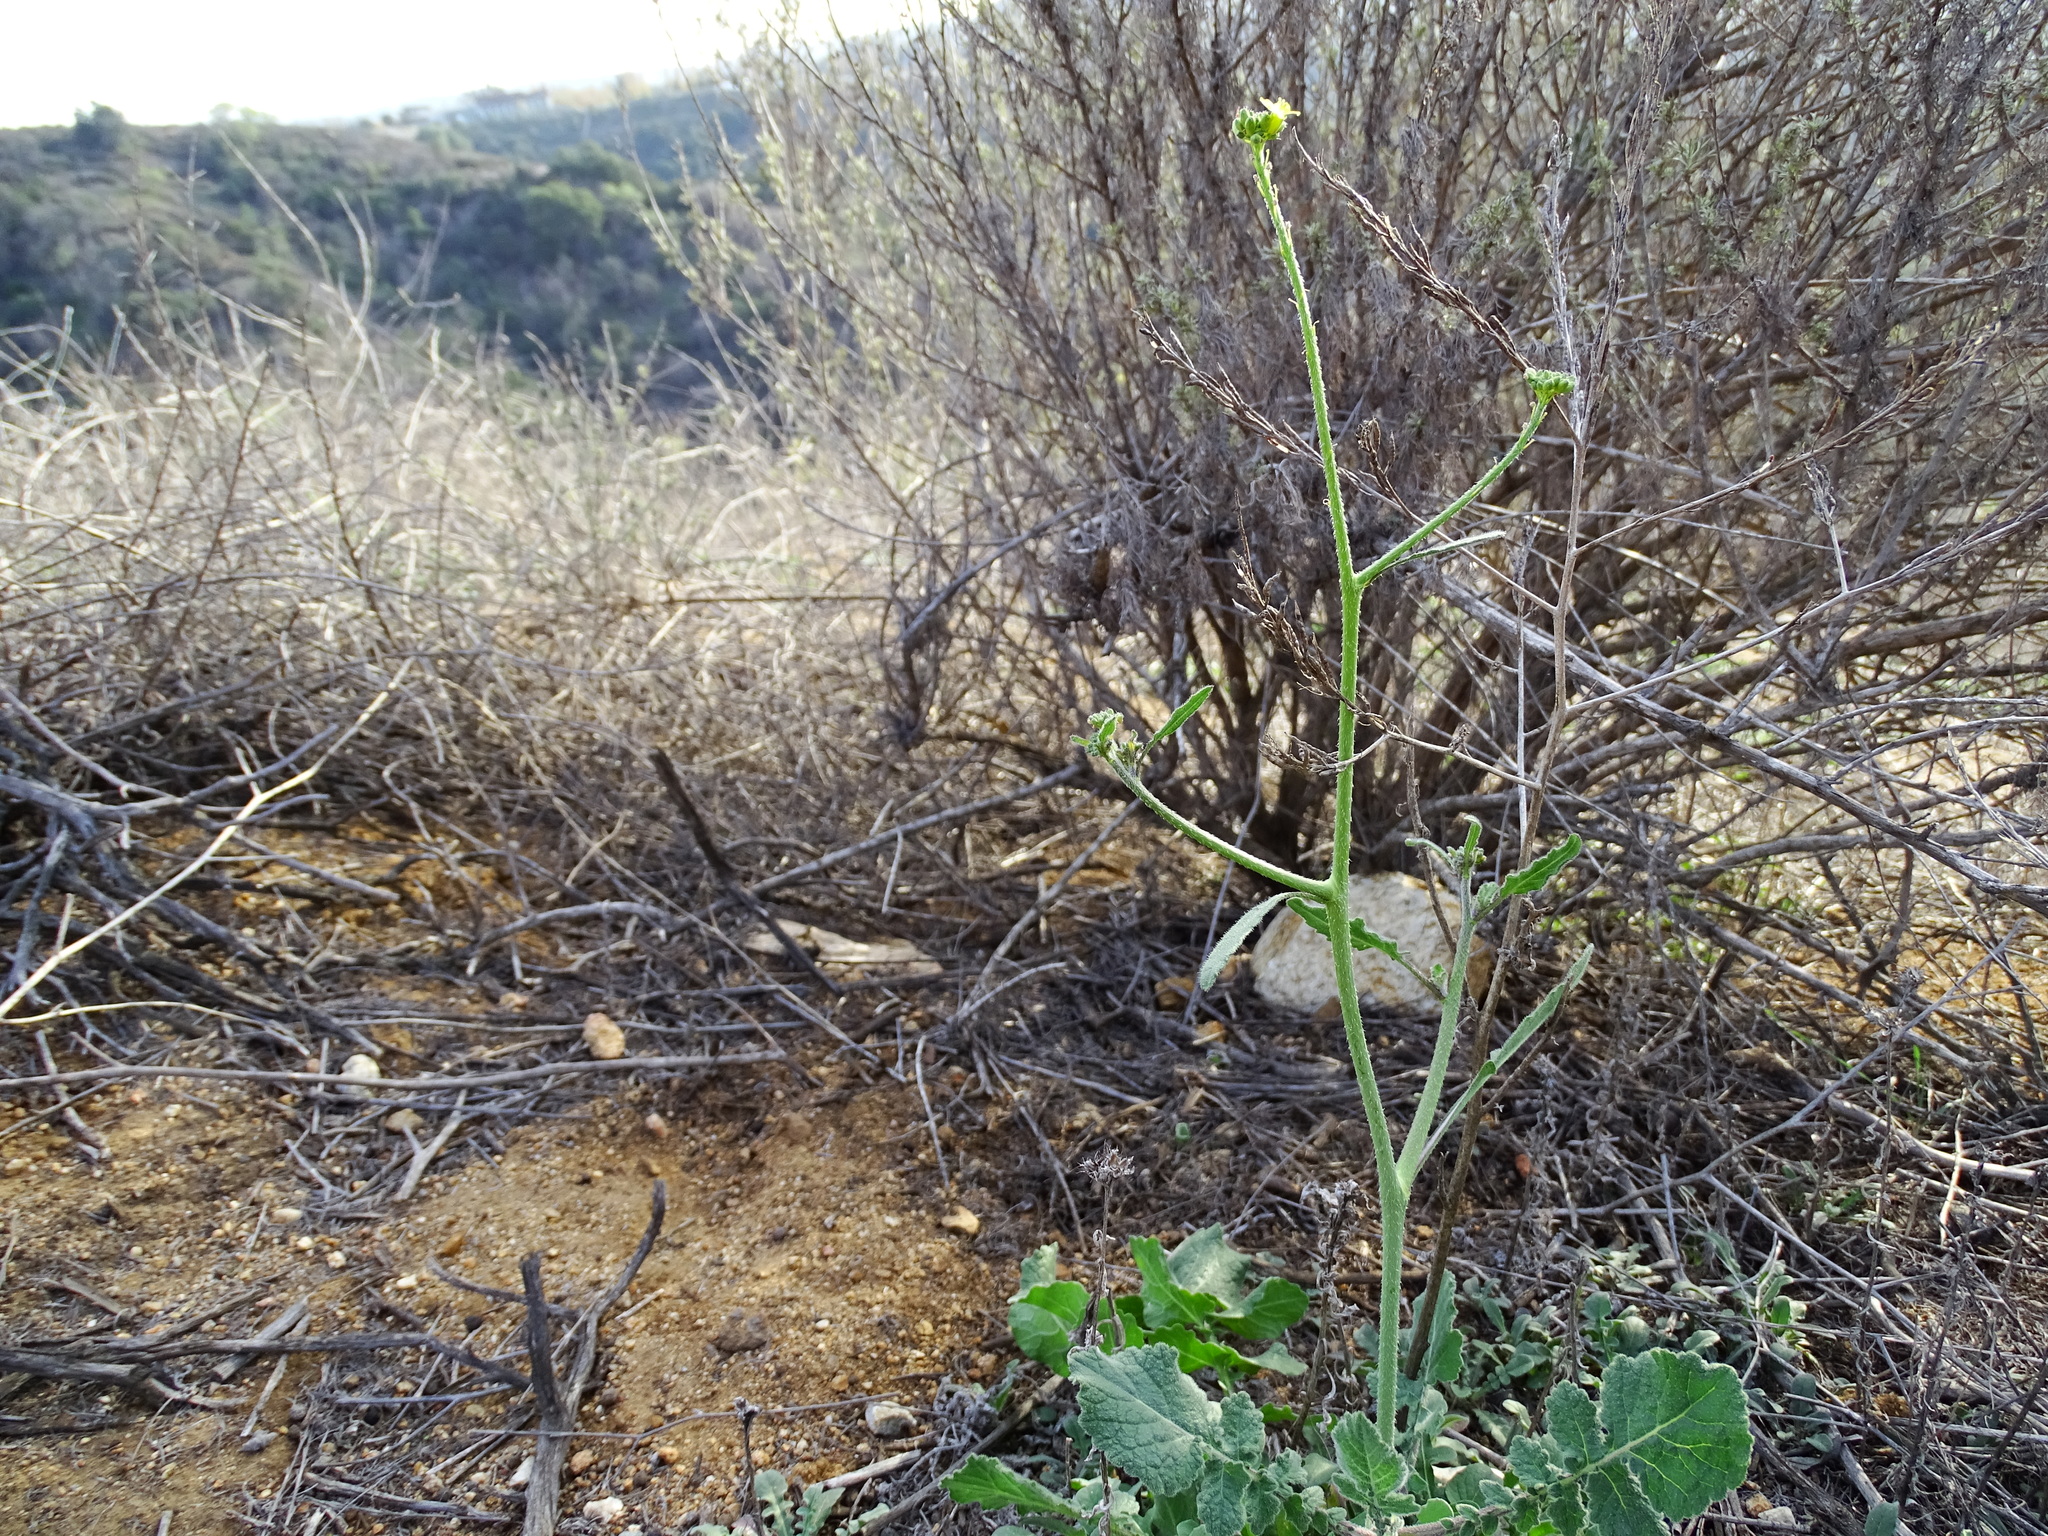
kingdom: Plantae
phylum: Tracheophyta
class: Magnoliopsida
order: Brassicales
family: Brassicaceae
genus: Hirschfeldia
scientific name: Hirschfeldia incana
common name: Hoary mustard
